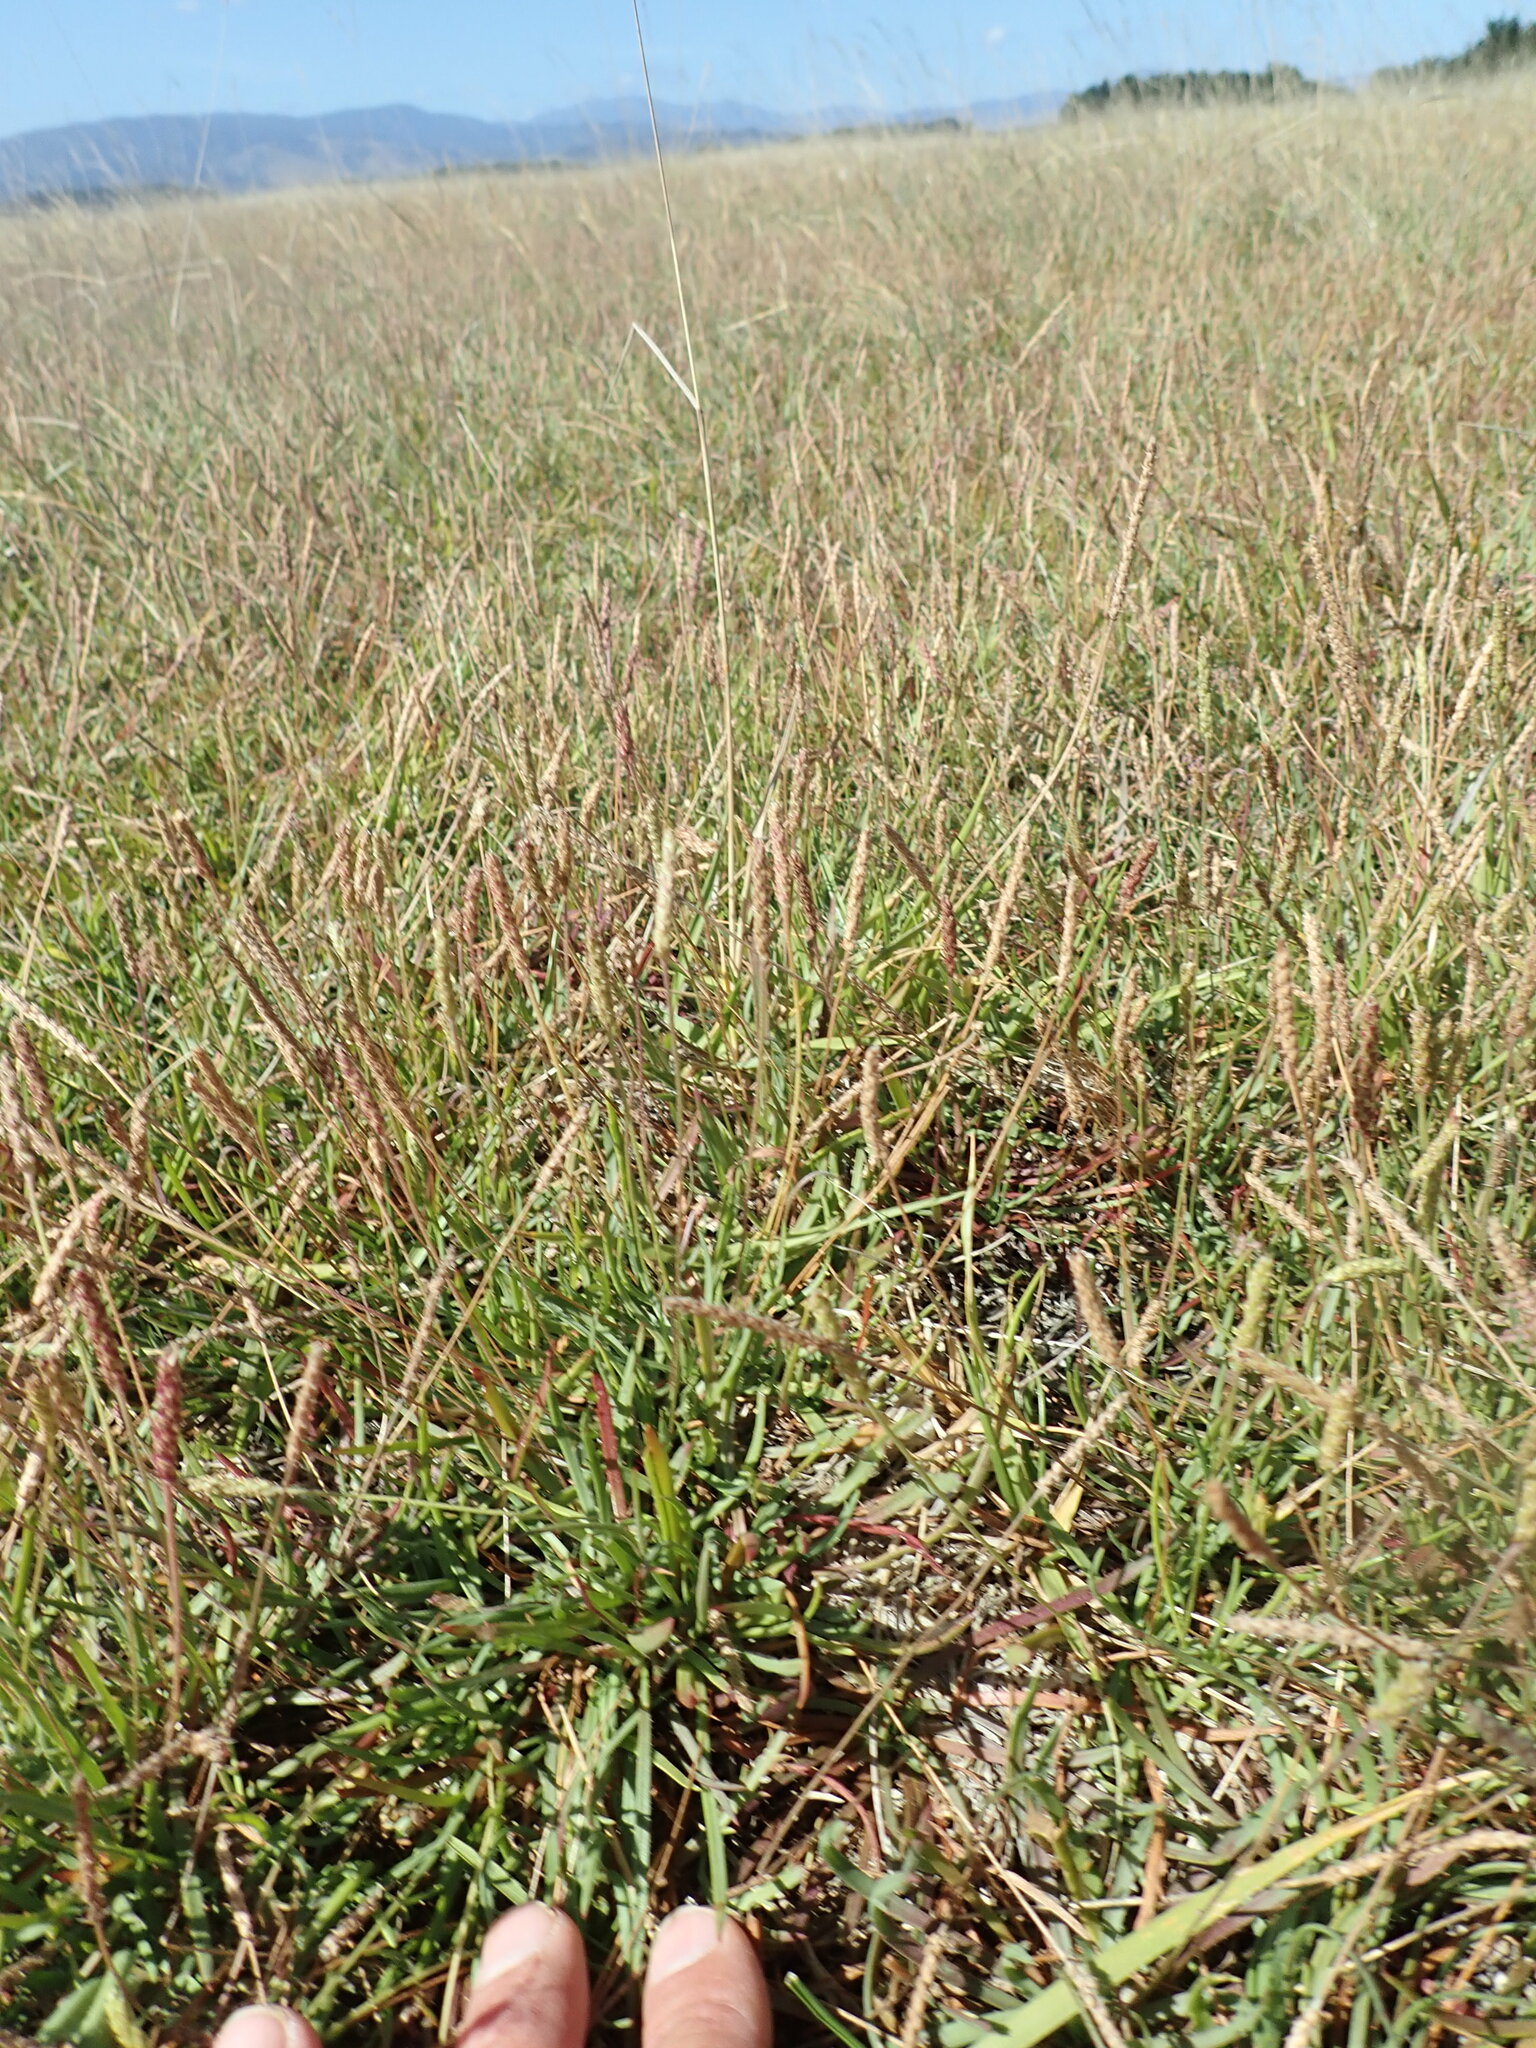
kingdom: Plantae
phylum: Tracheophyta
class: Magnoliopsida
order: Lamiales
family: Plantaginaceae
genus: Plantago
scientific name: Plantago coronopus
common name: Buck's-horn plantain
